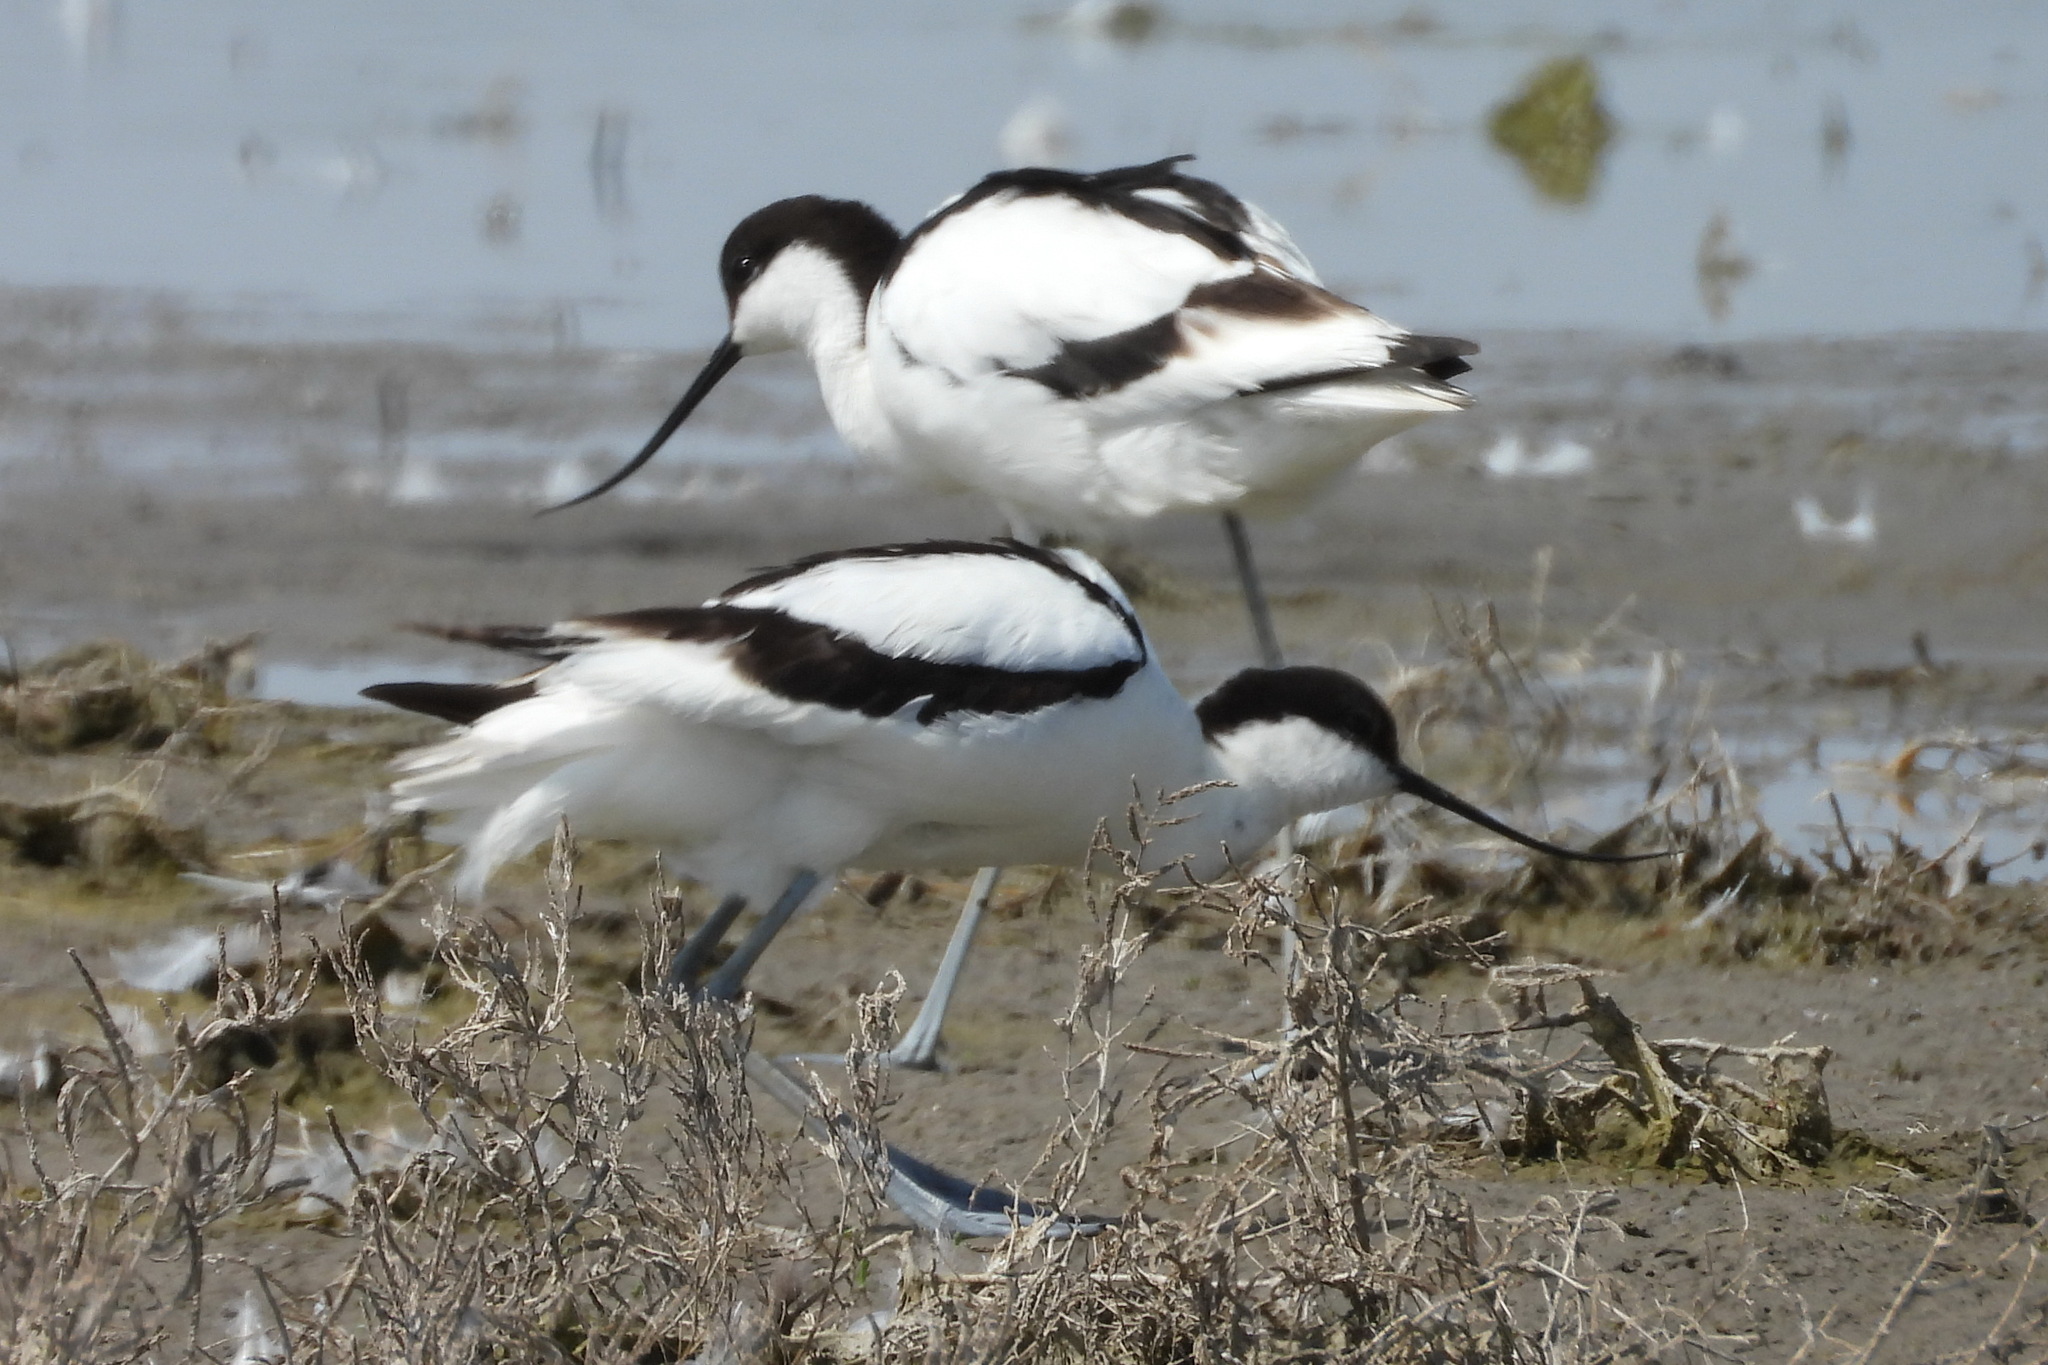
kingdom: Animalia
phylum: Chordata
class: Aves
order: Charadriiformes
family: Recurvirostridae
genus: Recurvirostra
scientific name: Recurvirostra avosetta
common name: Pied avocet
